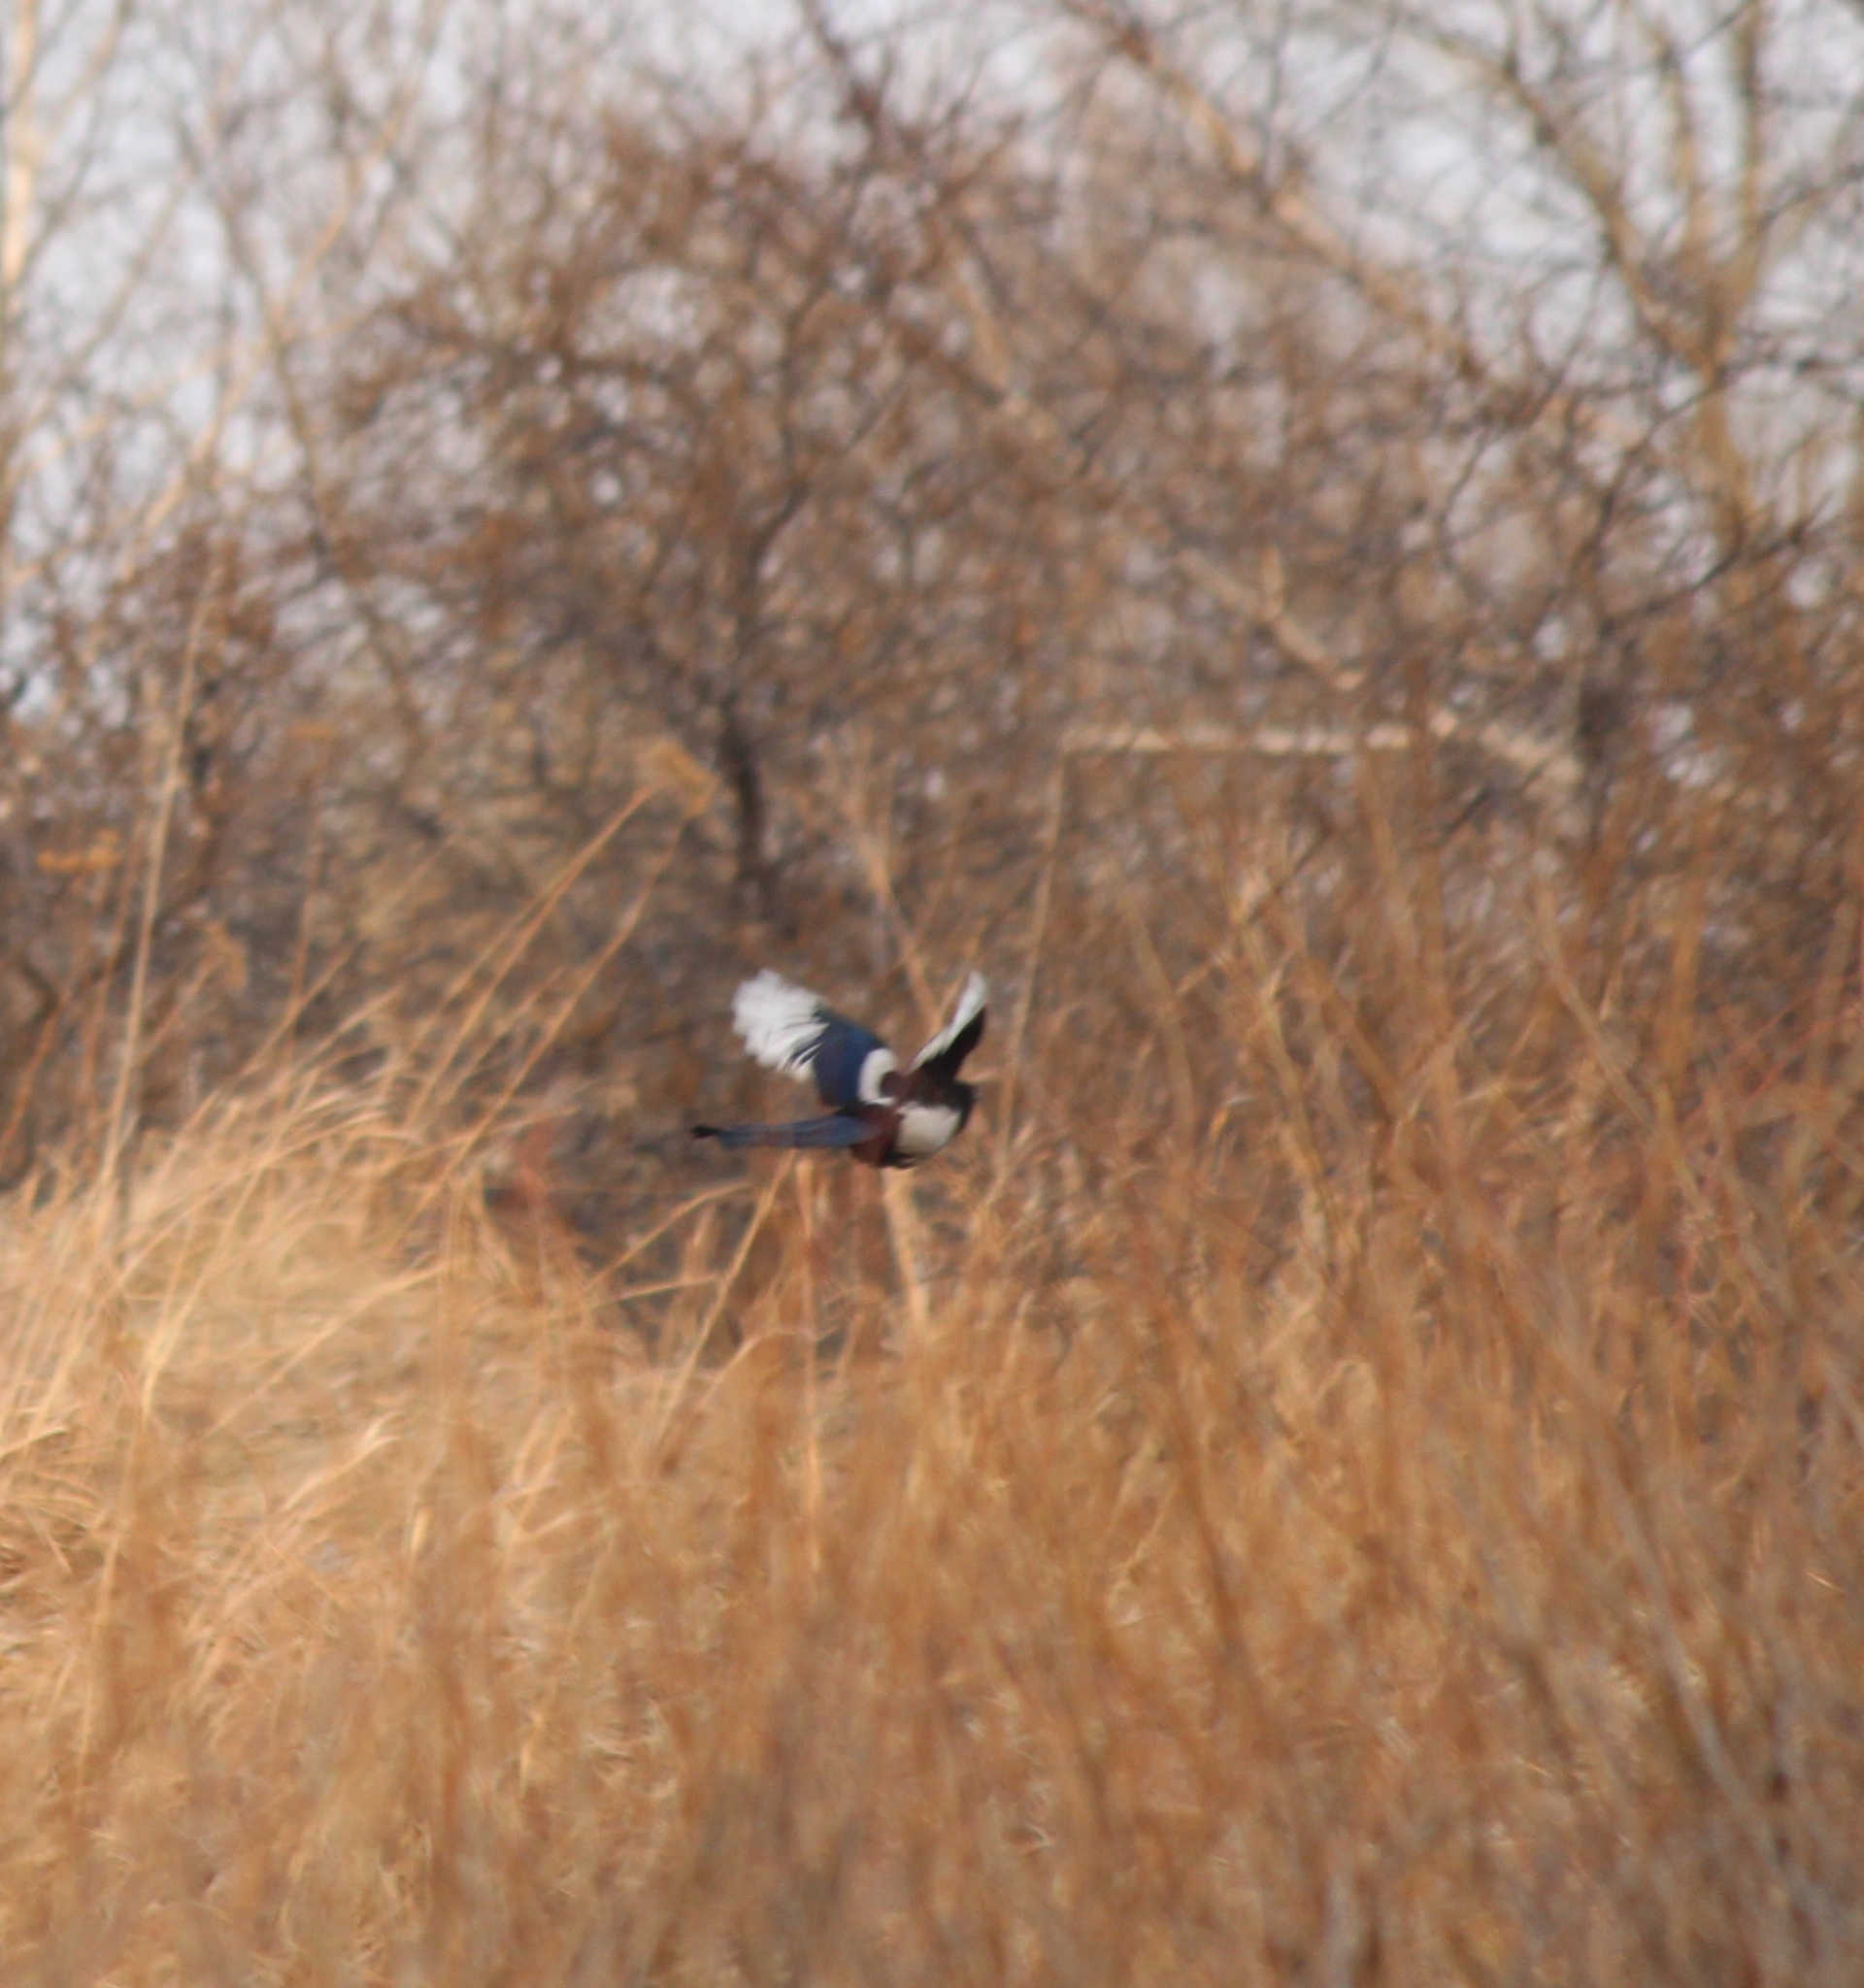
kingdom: Animalia
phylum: Chordata
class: Aves
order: Passeriformes
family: Corvidae
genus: Pica
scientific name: Pica pica
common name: Eurasian magpie
